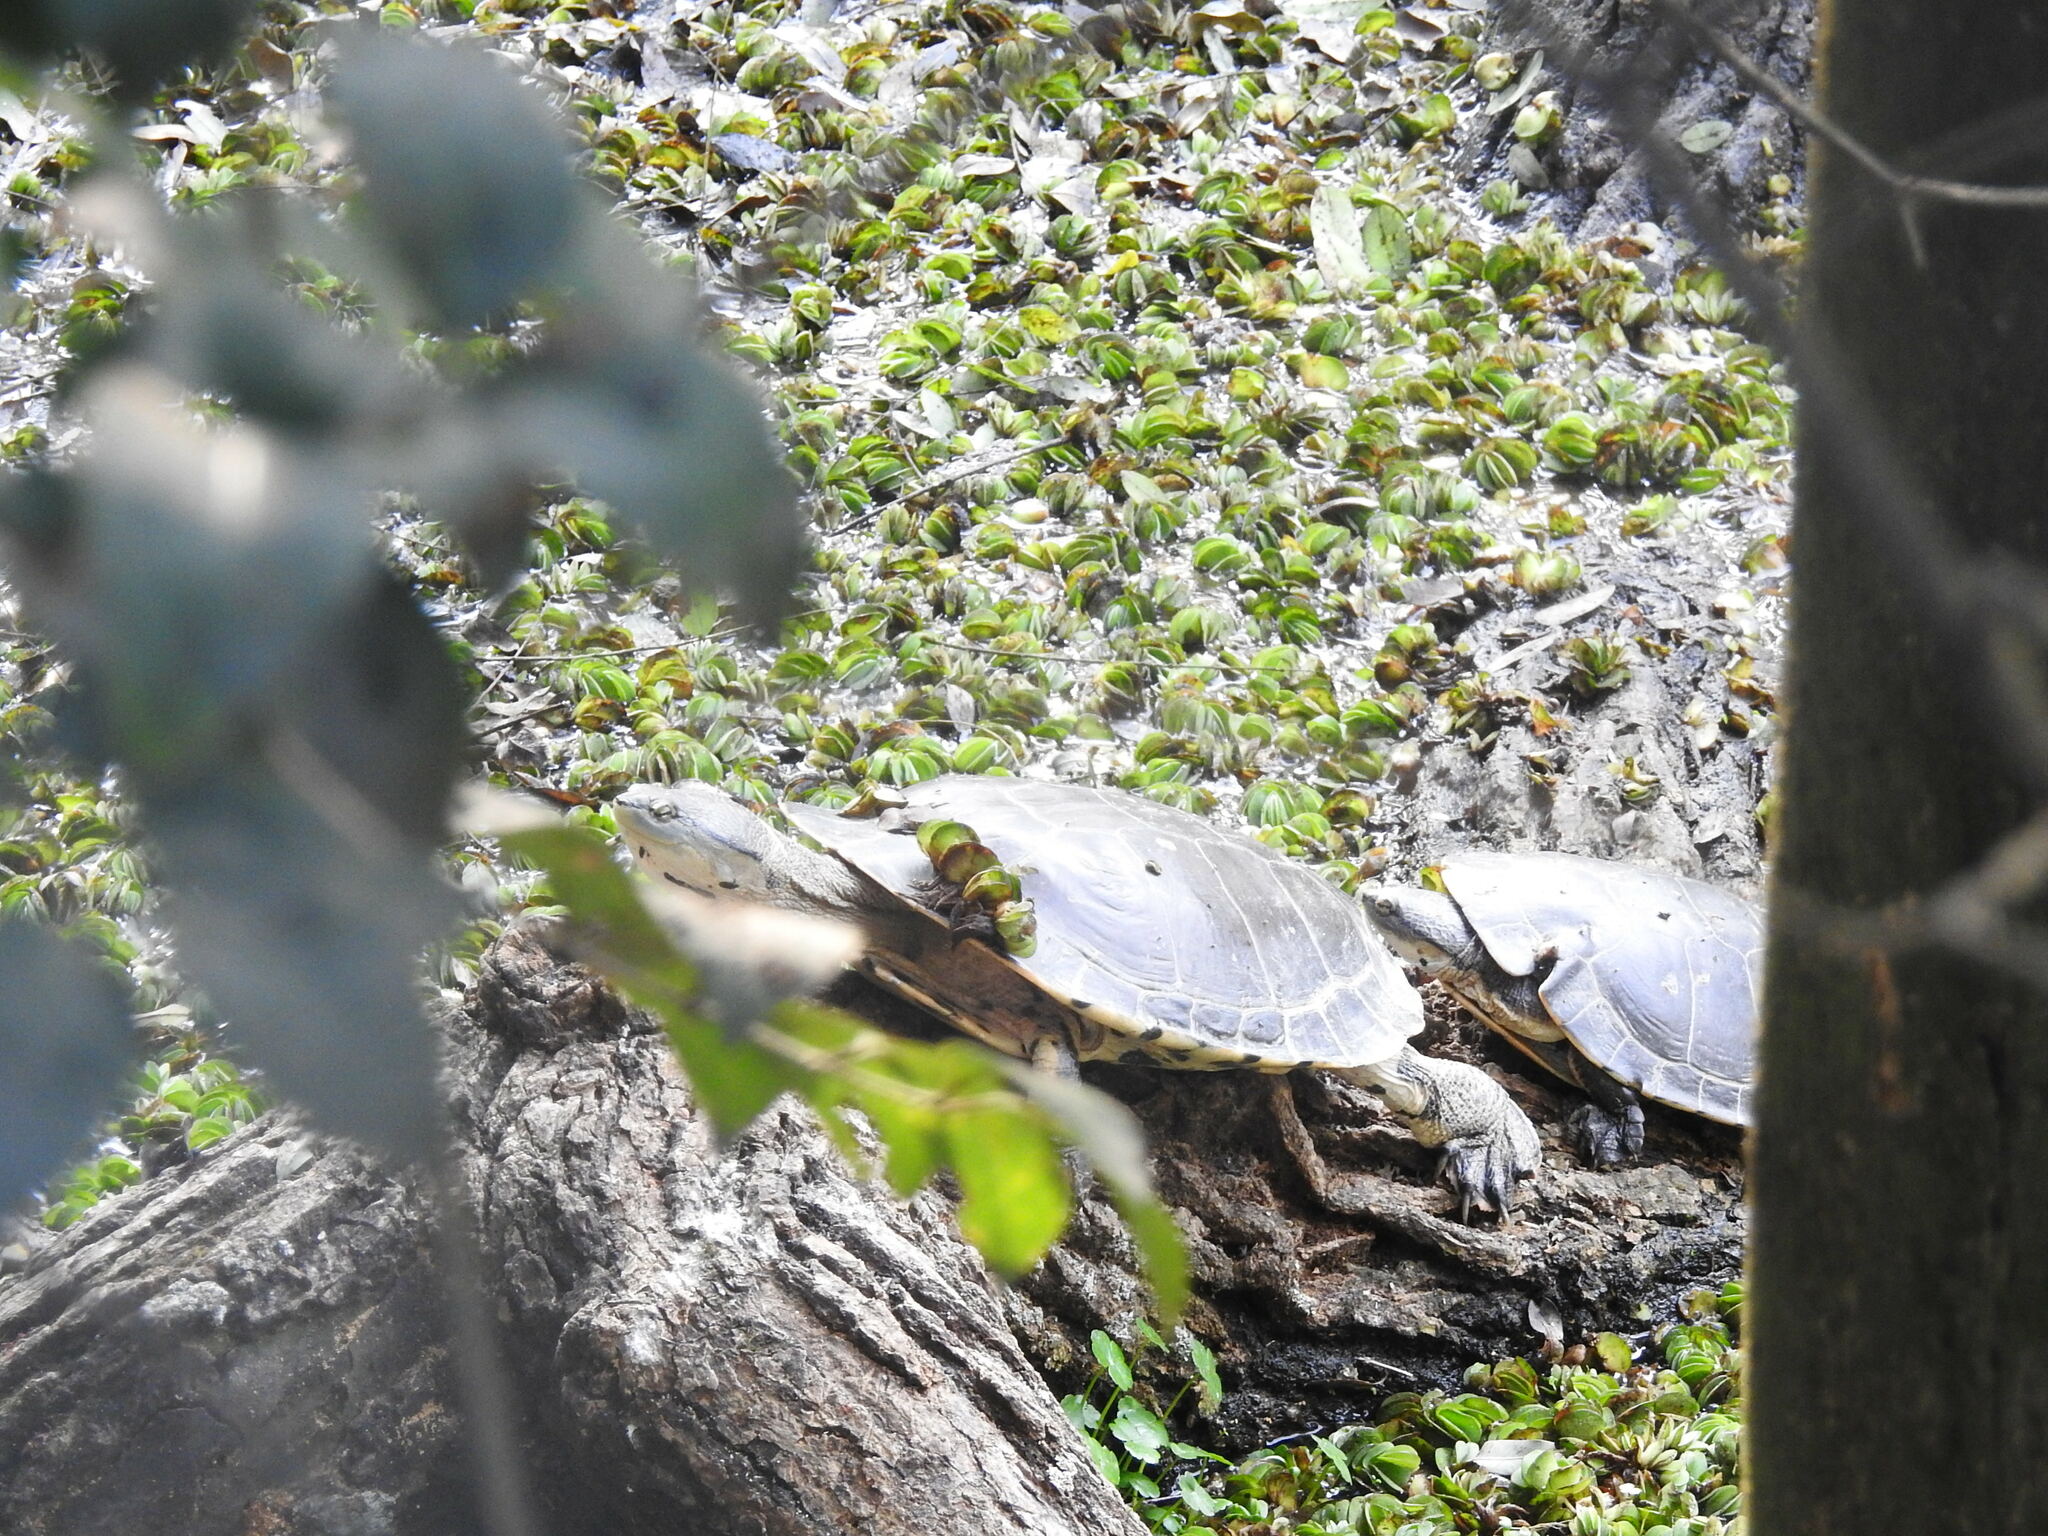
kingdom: Animalia
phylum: Chordata
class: Testudines
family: Chelidae
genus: Phrynops
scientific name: Phrynops hilarii
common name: Side-necked turtle of saint hillaire
